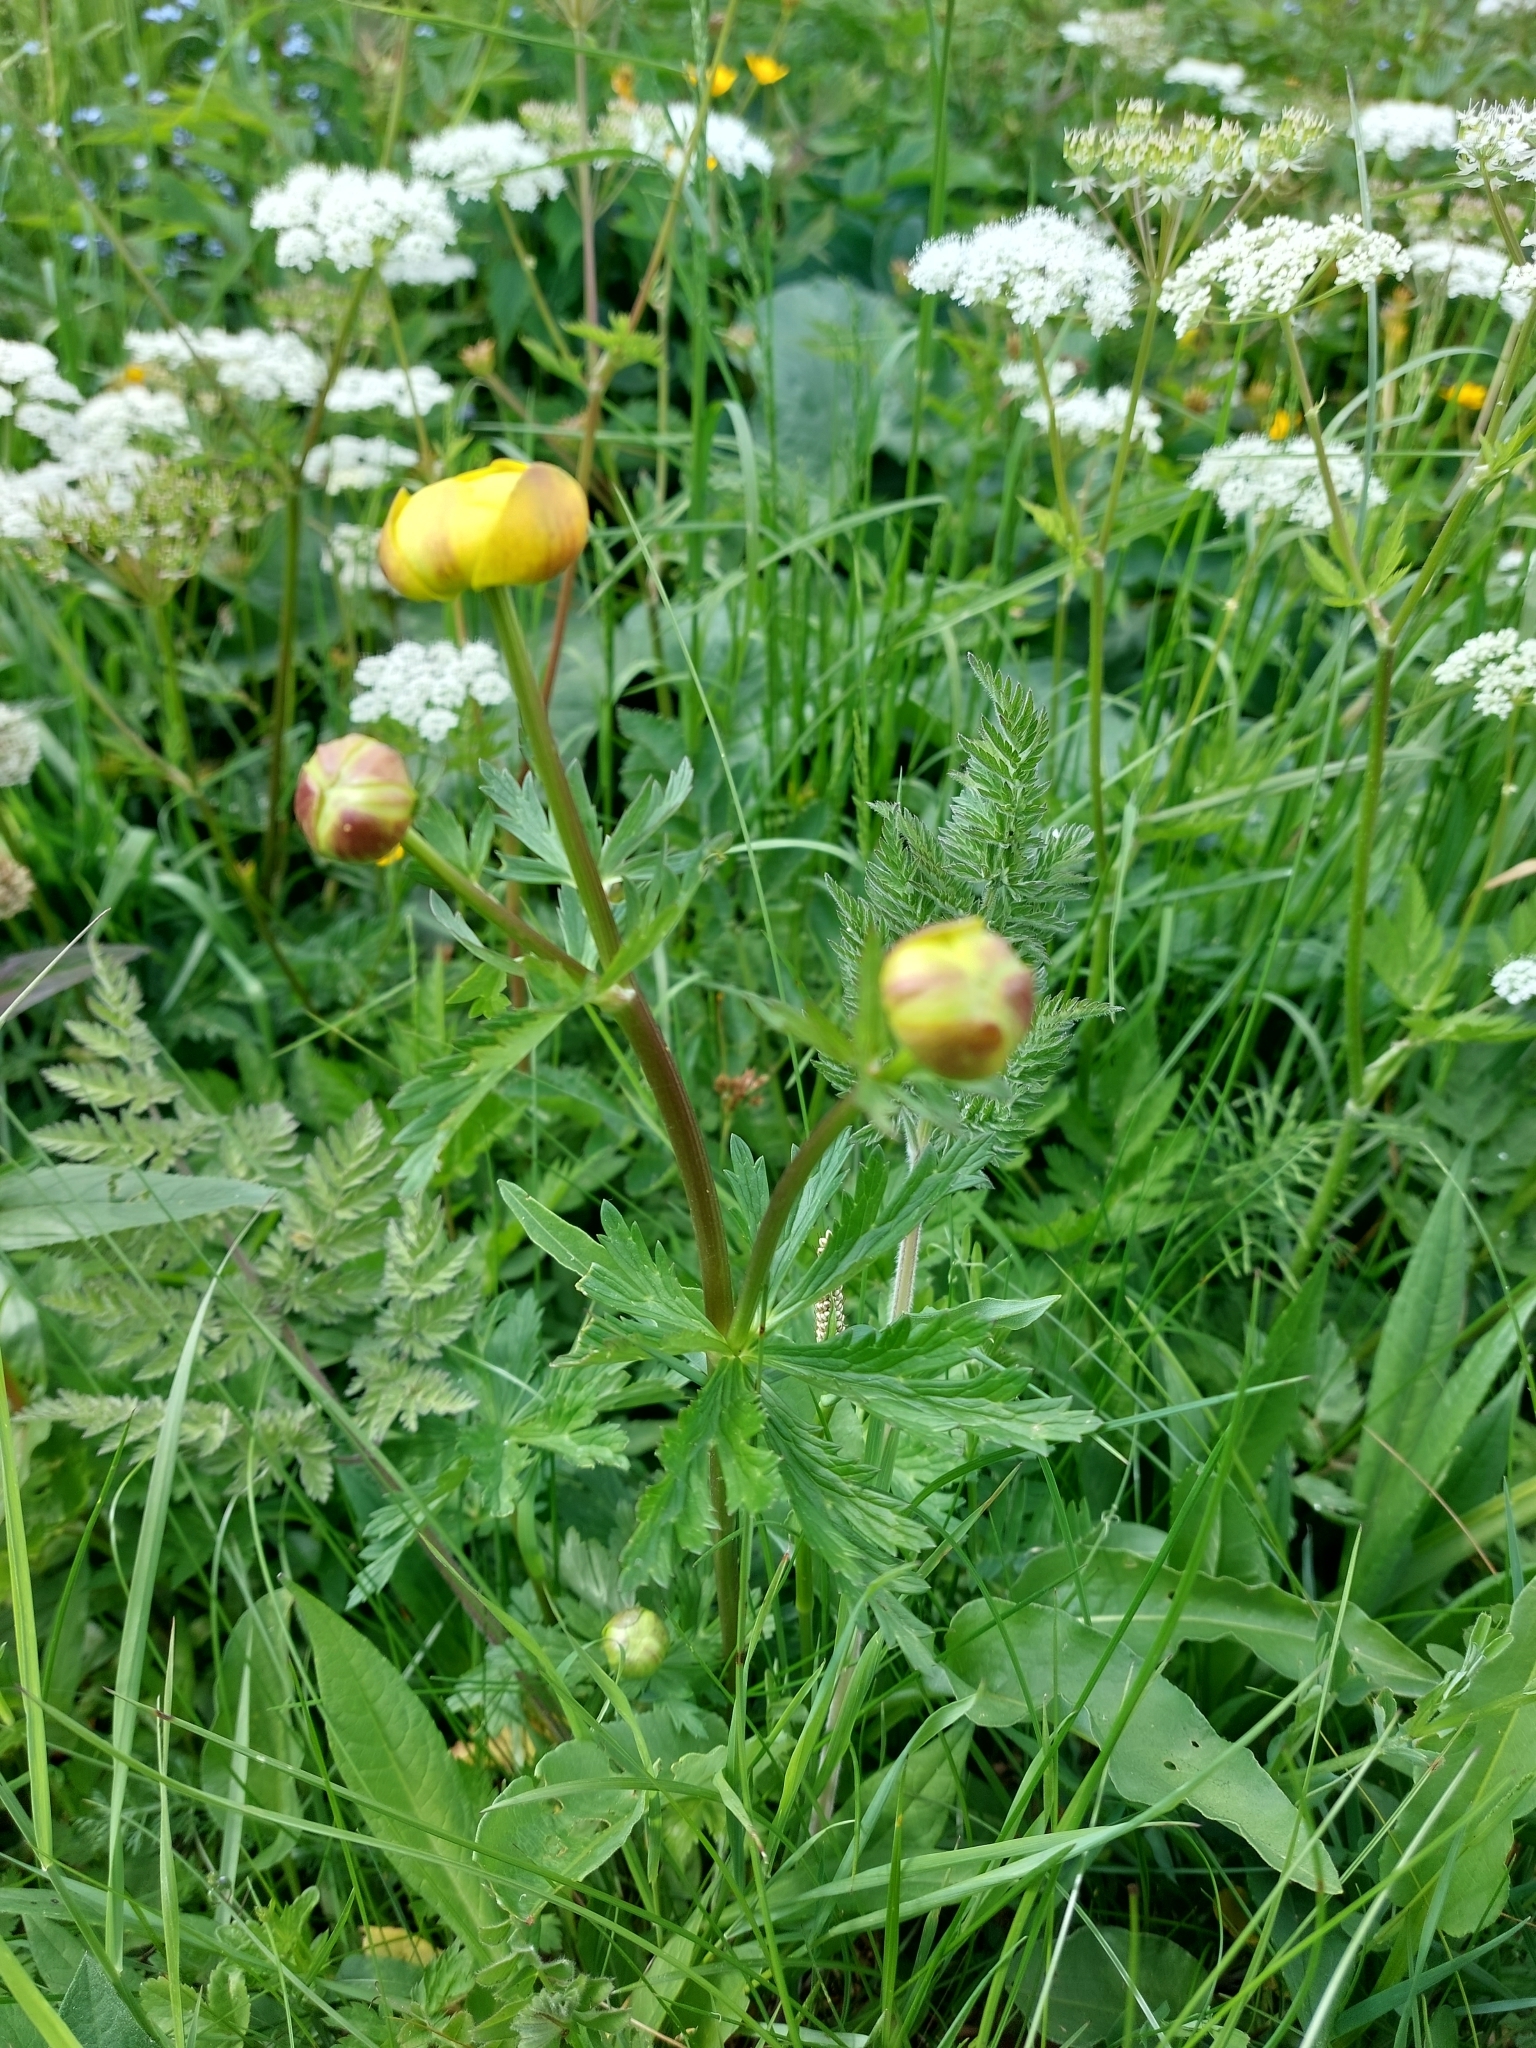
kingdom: Plantae
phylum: Tracheophyta
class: Magnoliopsida
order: Ranunculales
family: Ranunculaceae
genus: Trollius
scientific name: Trollius europaeus
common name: European globeflower
